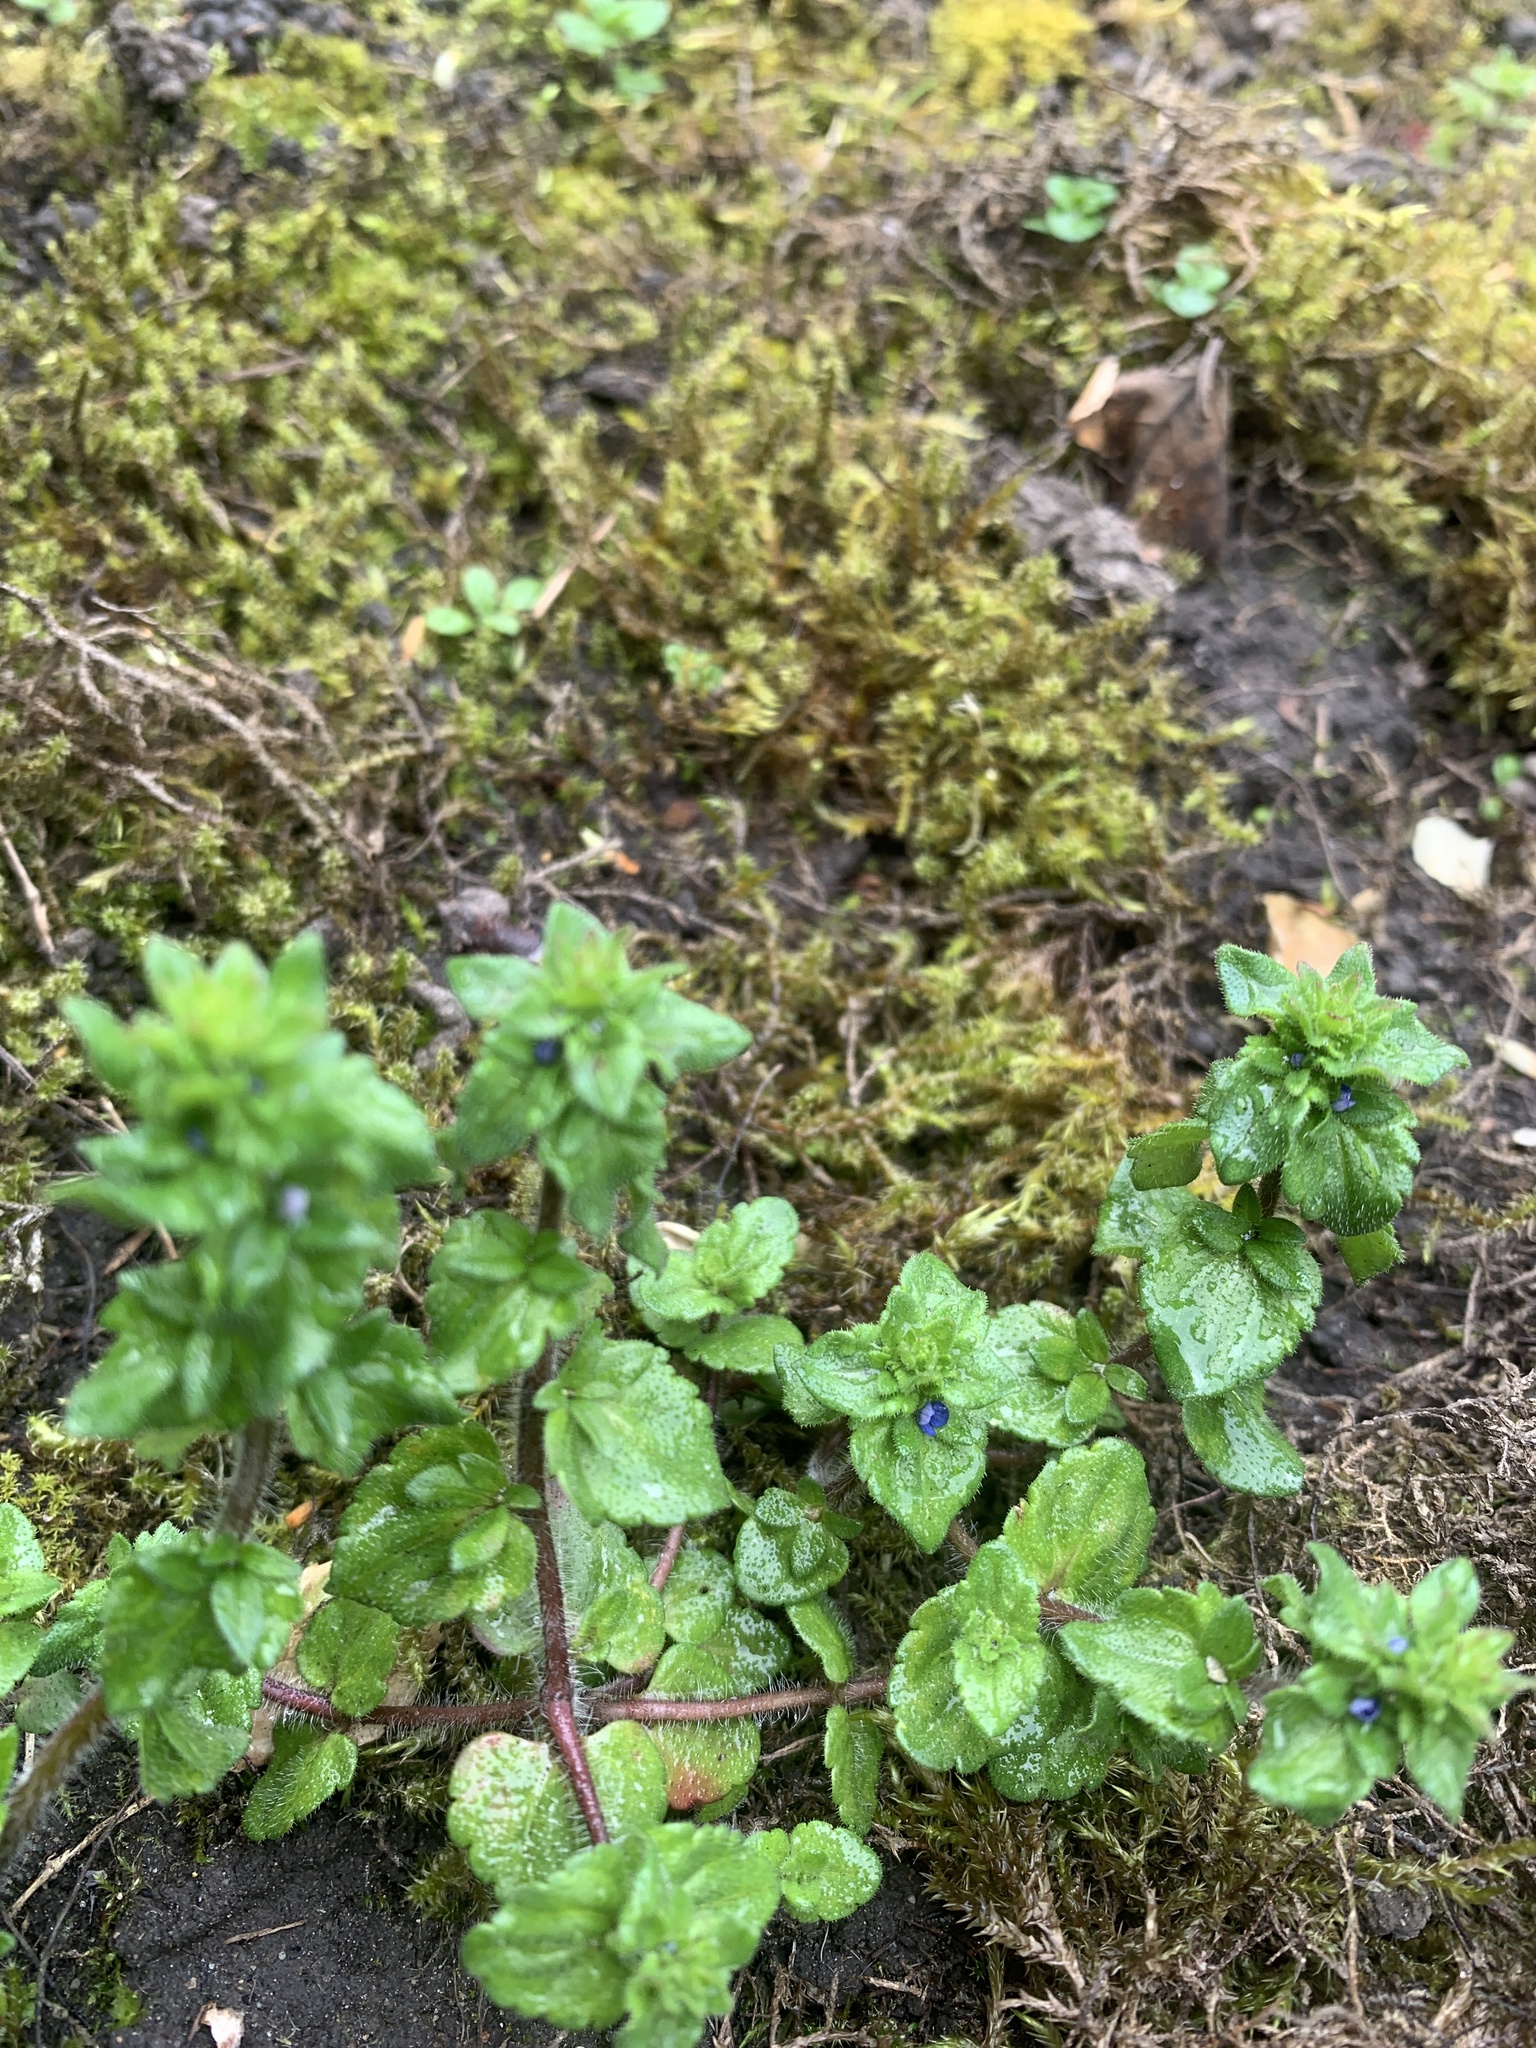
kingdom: Plantae
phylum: Tracheophyta
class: Magnoliopsida
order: Lamiales
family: Plantaginaceae
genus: Veronica
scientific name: Veronica arvensis
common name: Corn speedwell
